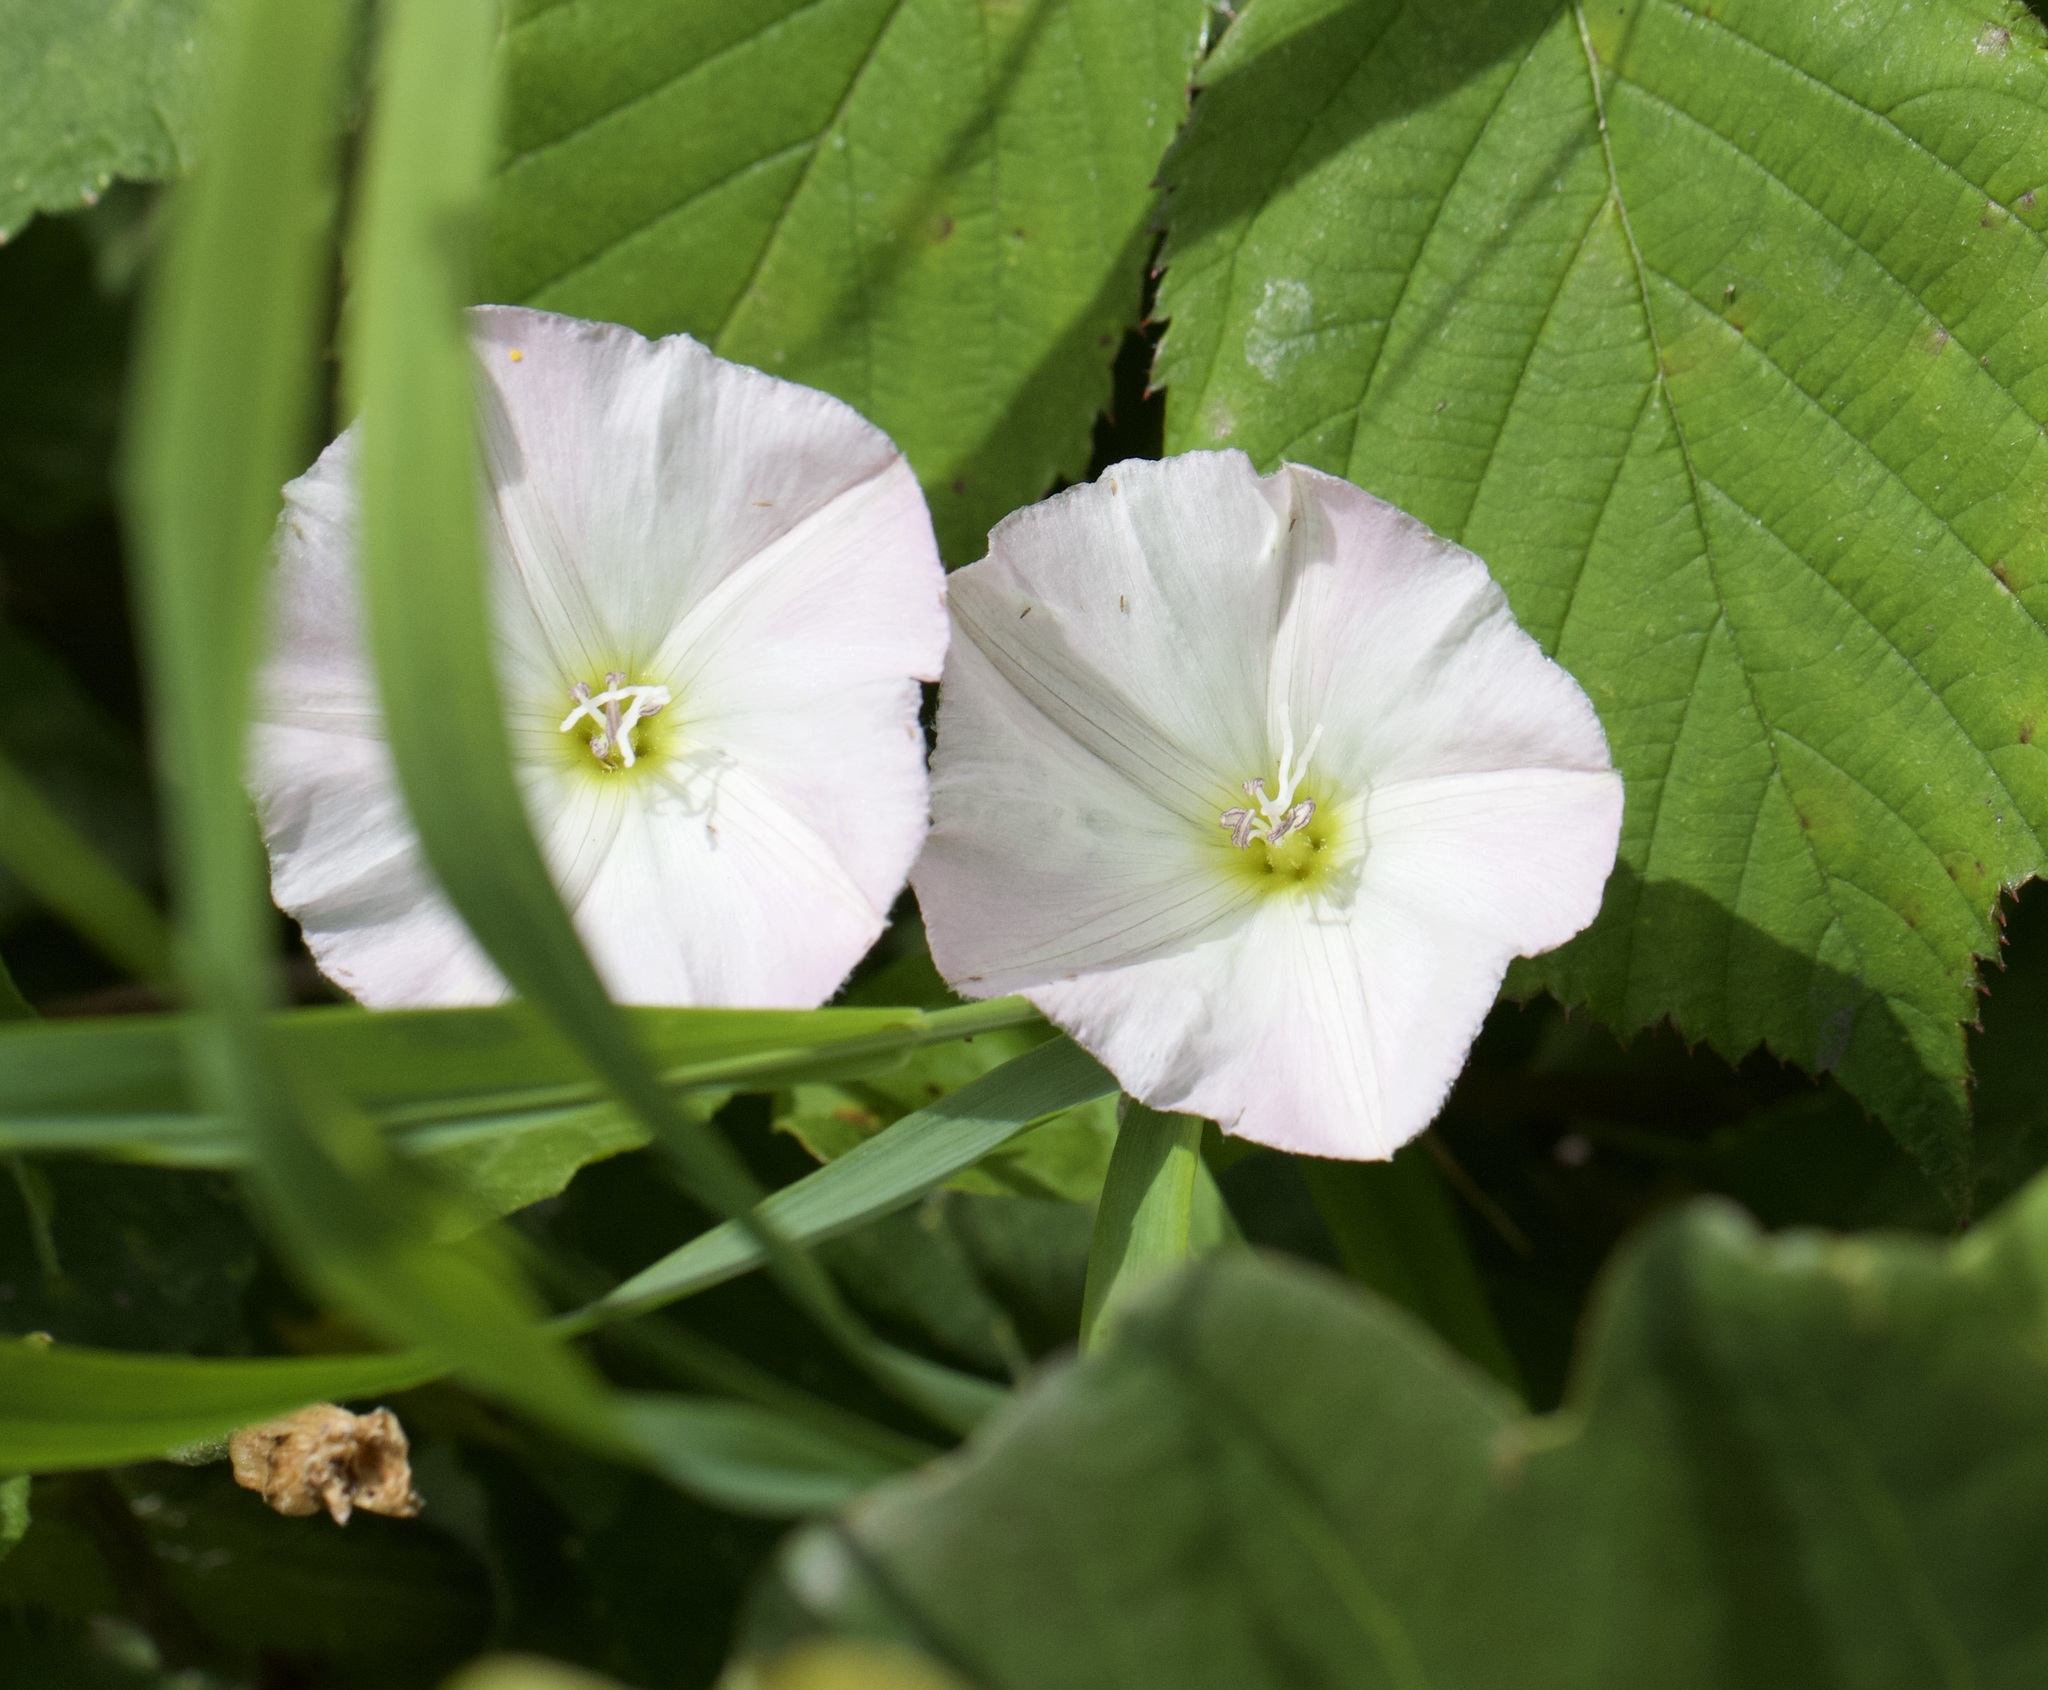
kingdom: Plantae
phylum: Tracheophyta
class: Magnoliopsida
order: Solanales
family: Convolvulaceae
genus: Convolvulus
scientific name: Convolvulus arvensis
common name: Field bindweed
